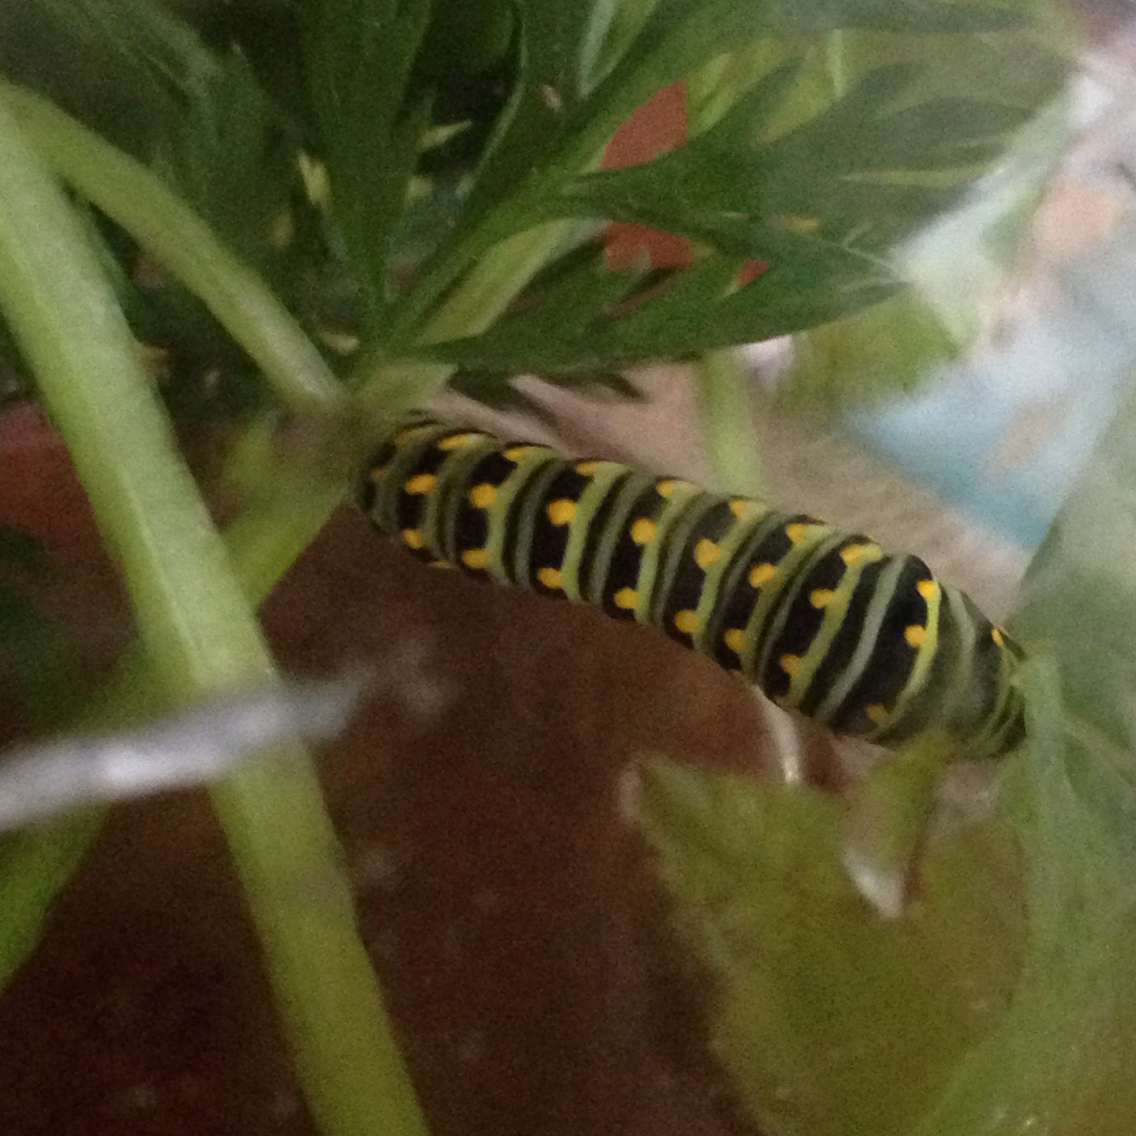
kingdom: Animalia
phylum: Arthropoda
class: Insecta
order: Lepidoptera
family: Papilionidae
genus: Papilio
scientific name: Papilio polyxenes
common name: Black swallowtail
